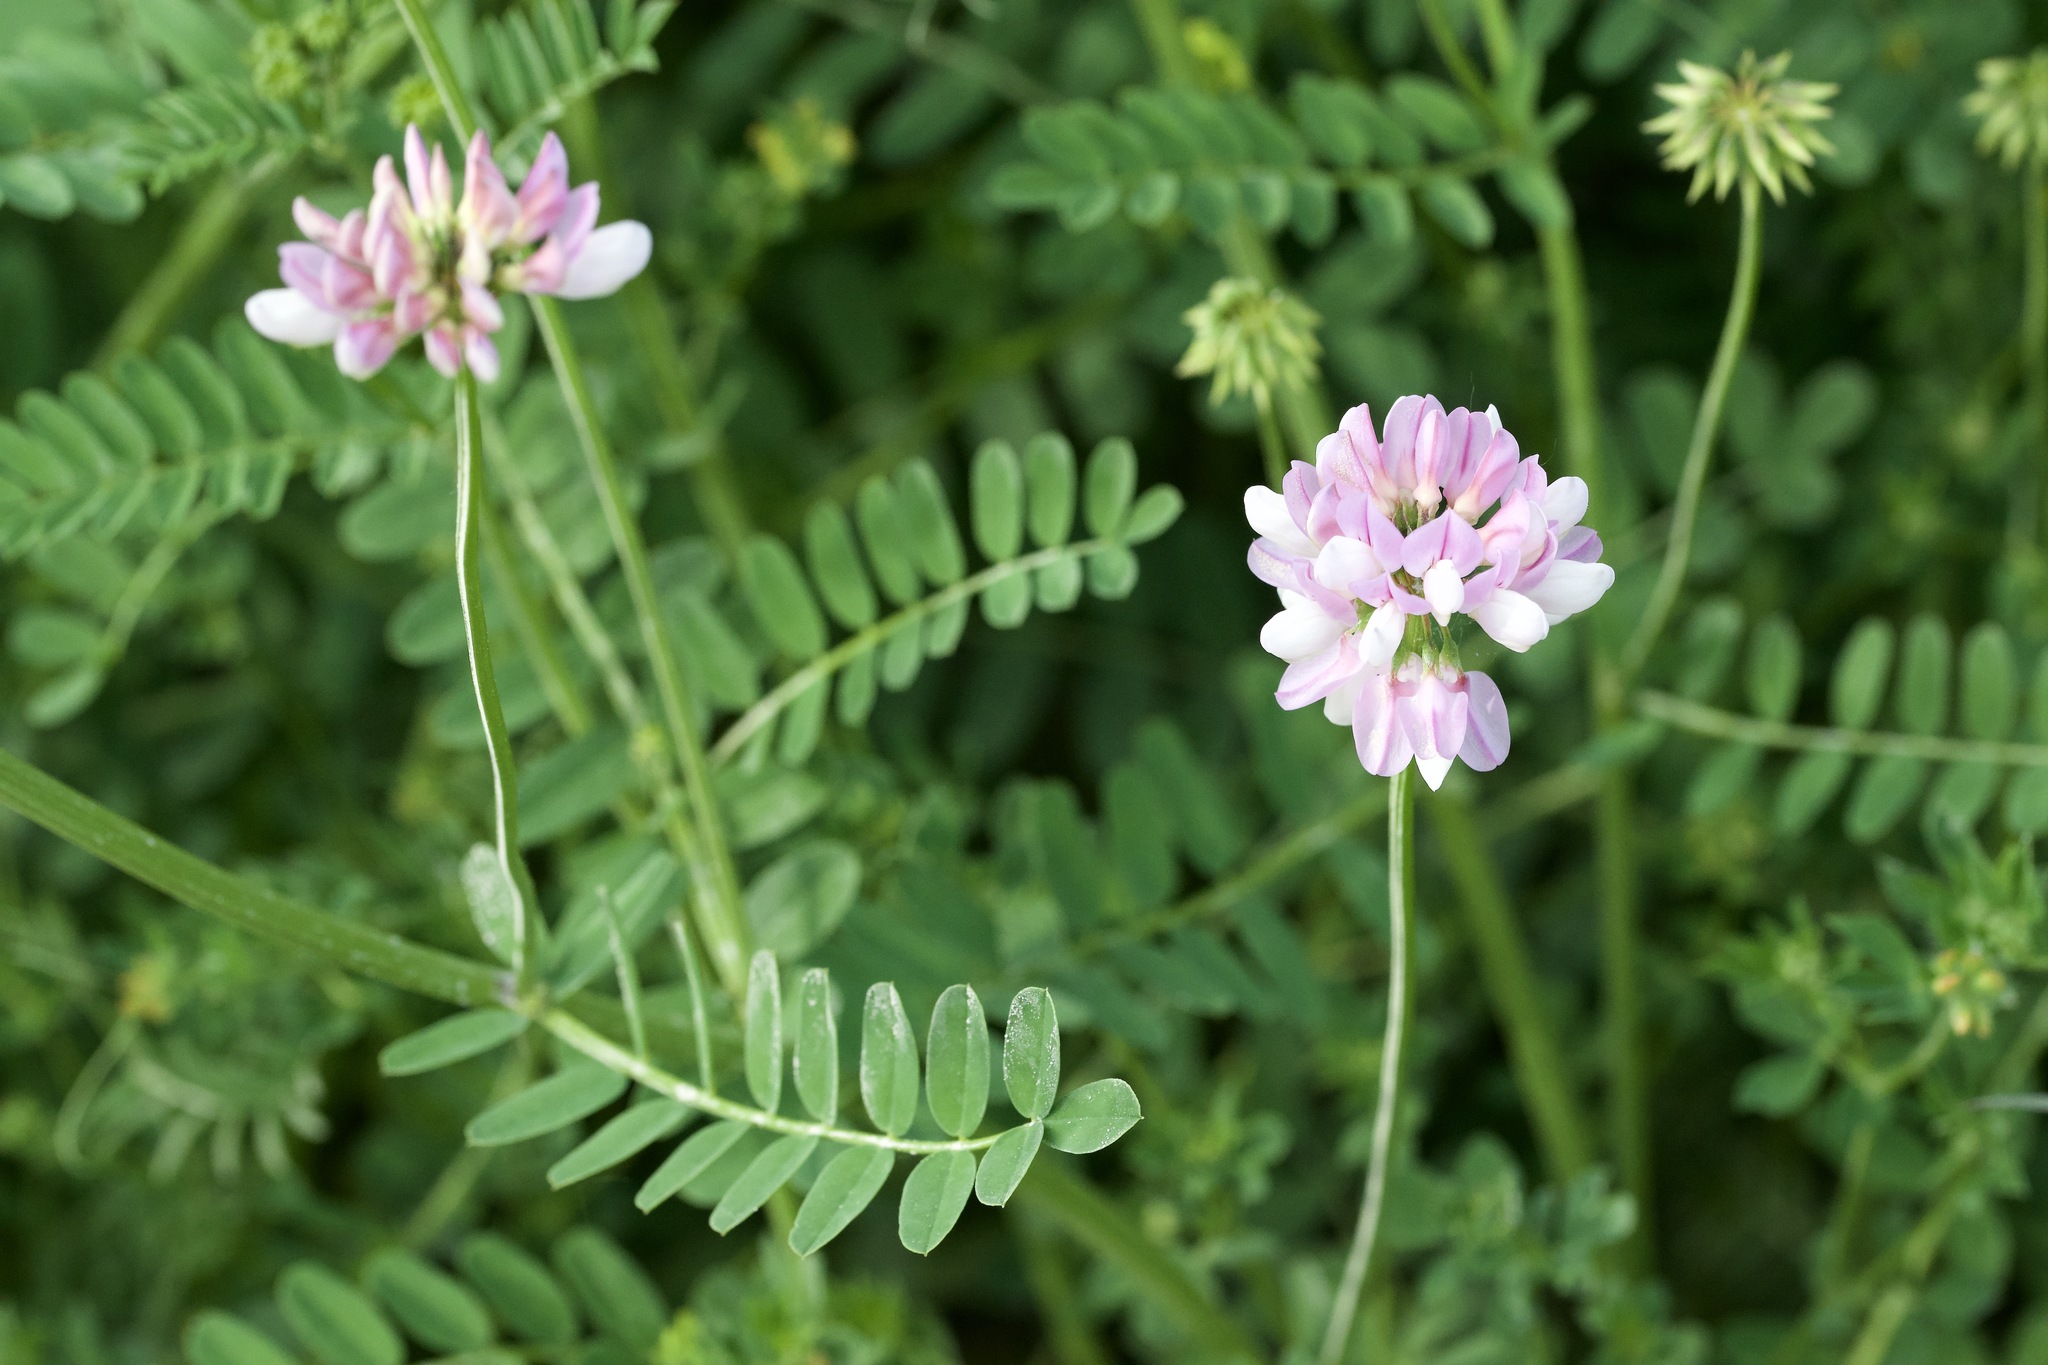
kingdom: Plantae
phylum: Tracheophyta
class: Magnoliopsida
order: Fabales
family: Fabaceae
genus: Coronilla
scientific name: Coronilla varia
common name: Crownvetch
